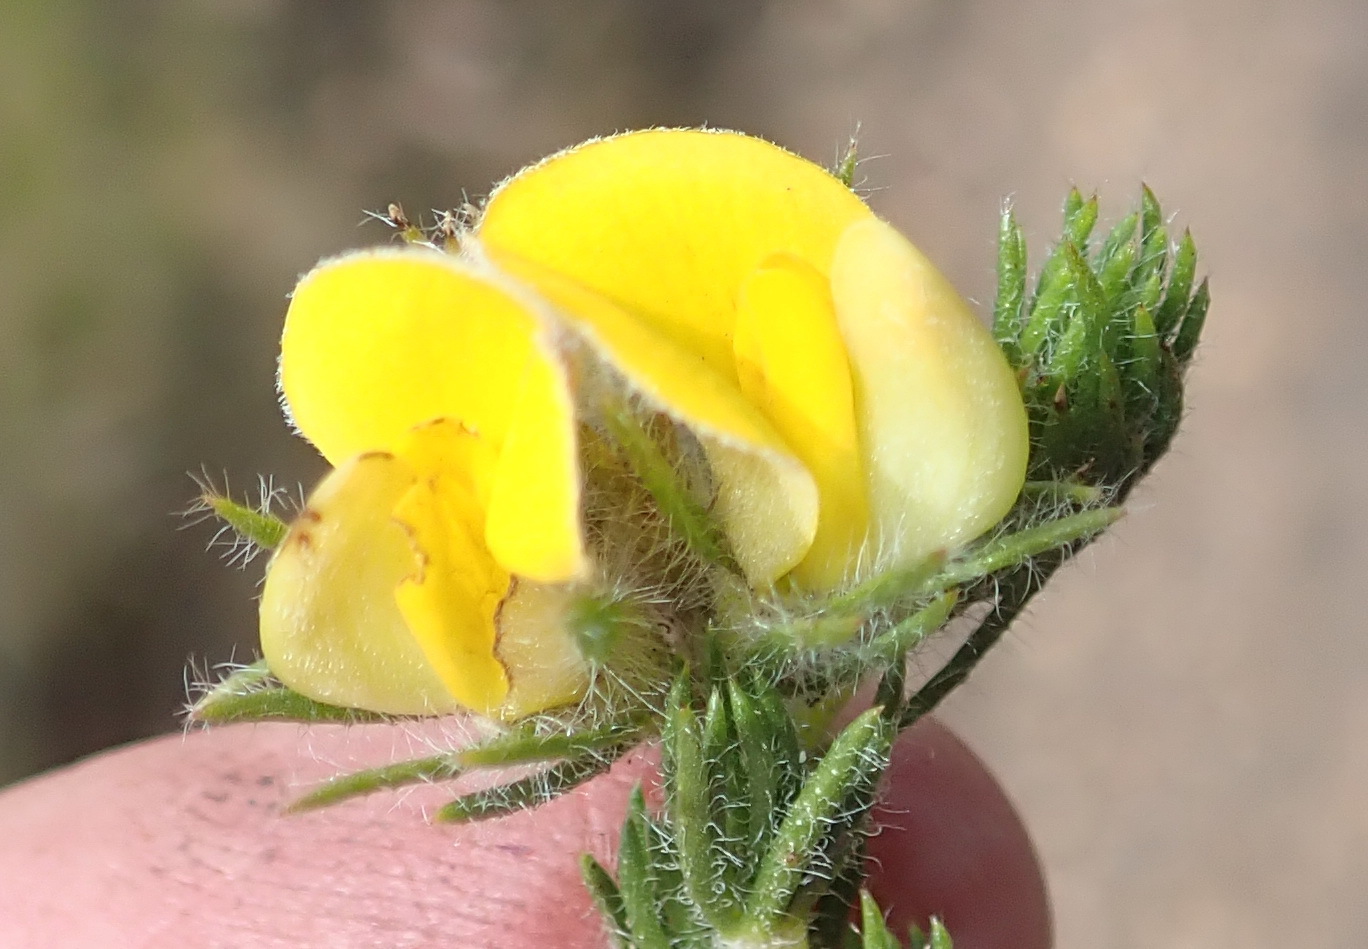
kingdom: Plantae
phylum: Tracheophyta
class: Magnoliopsida
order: Fabales
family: Fabaceae
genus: Aspalathus
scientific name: Aspalathus asparagoides
